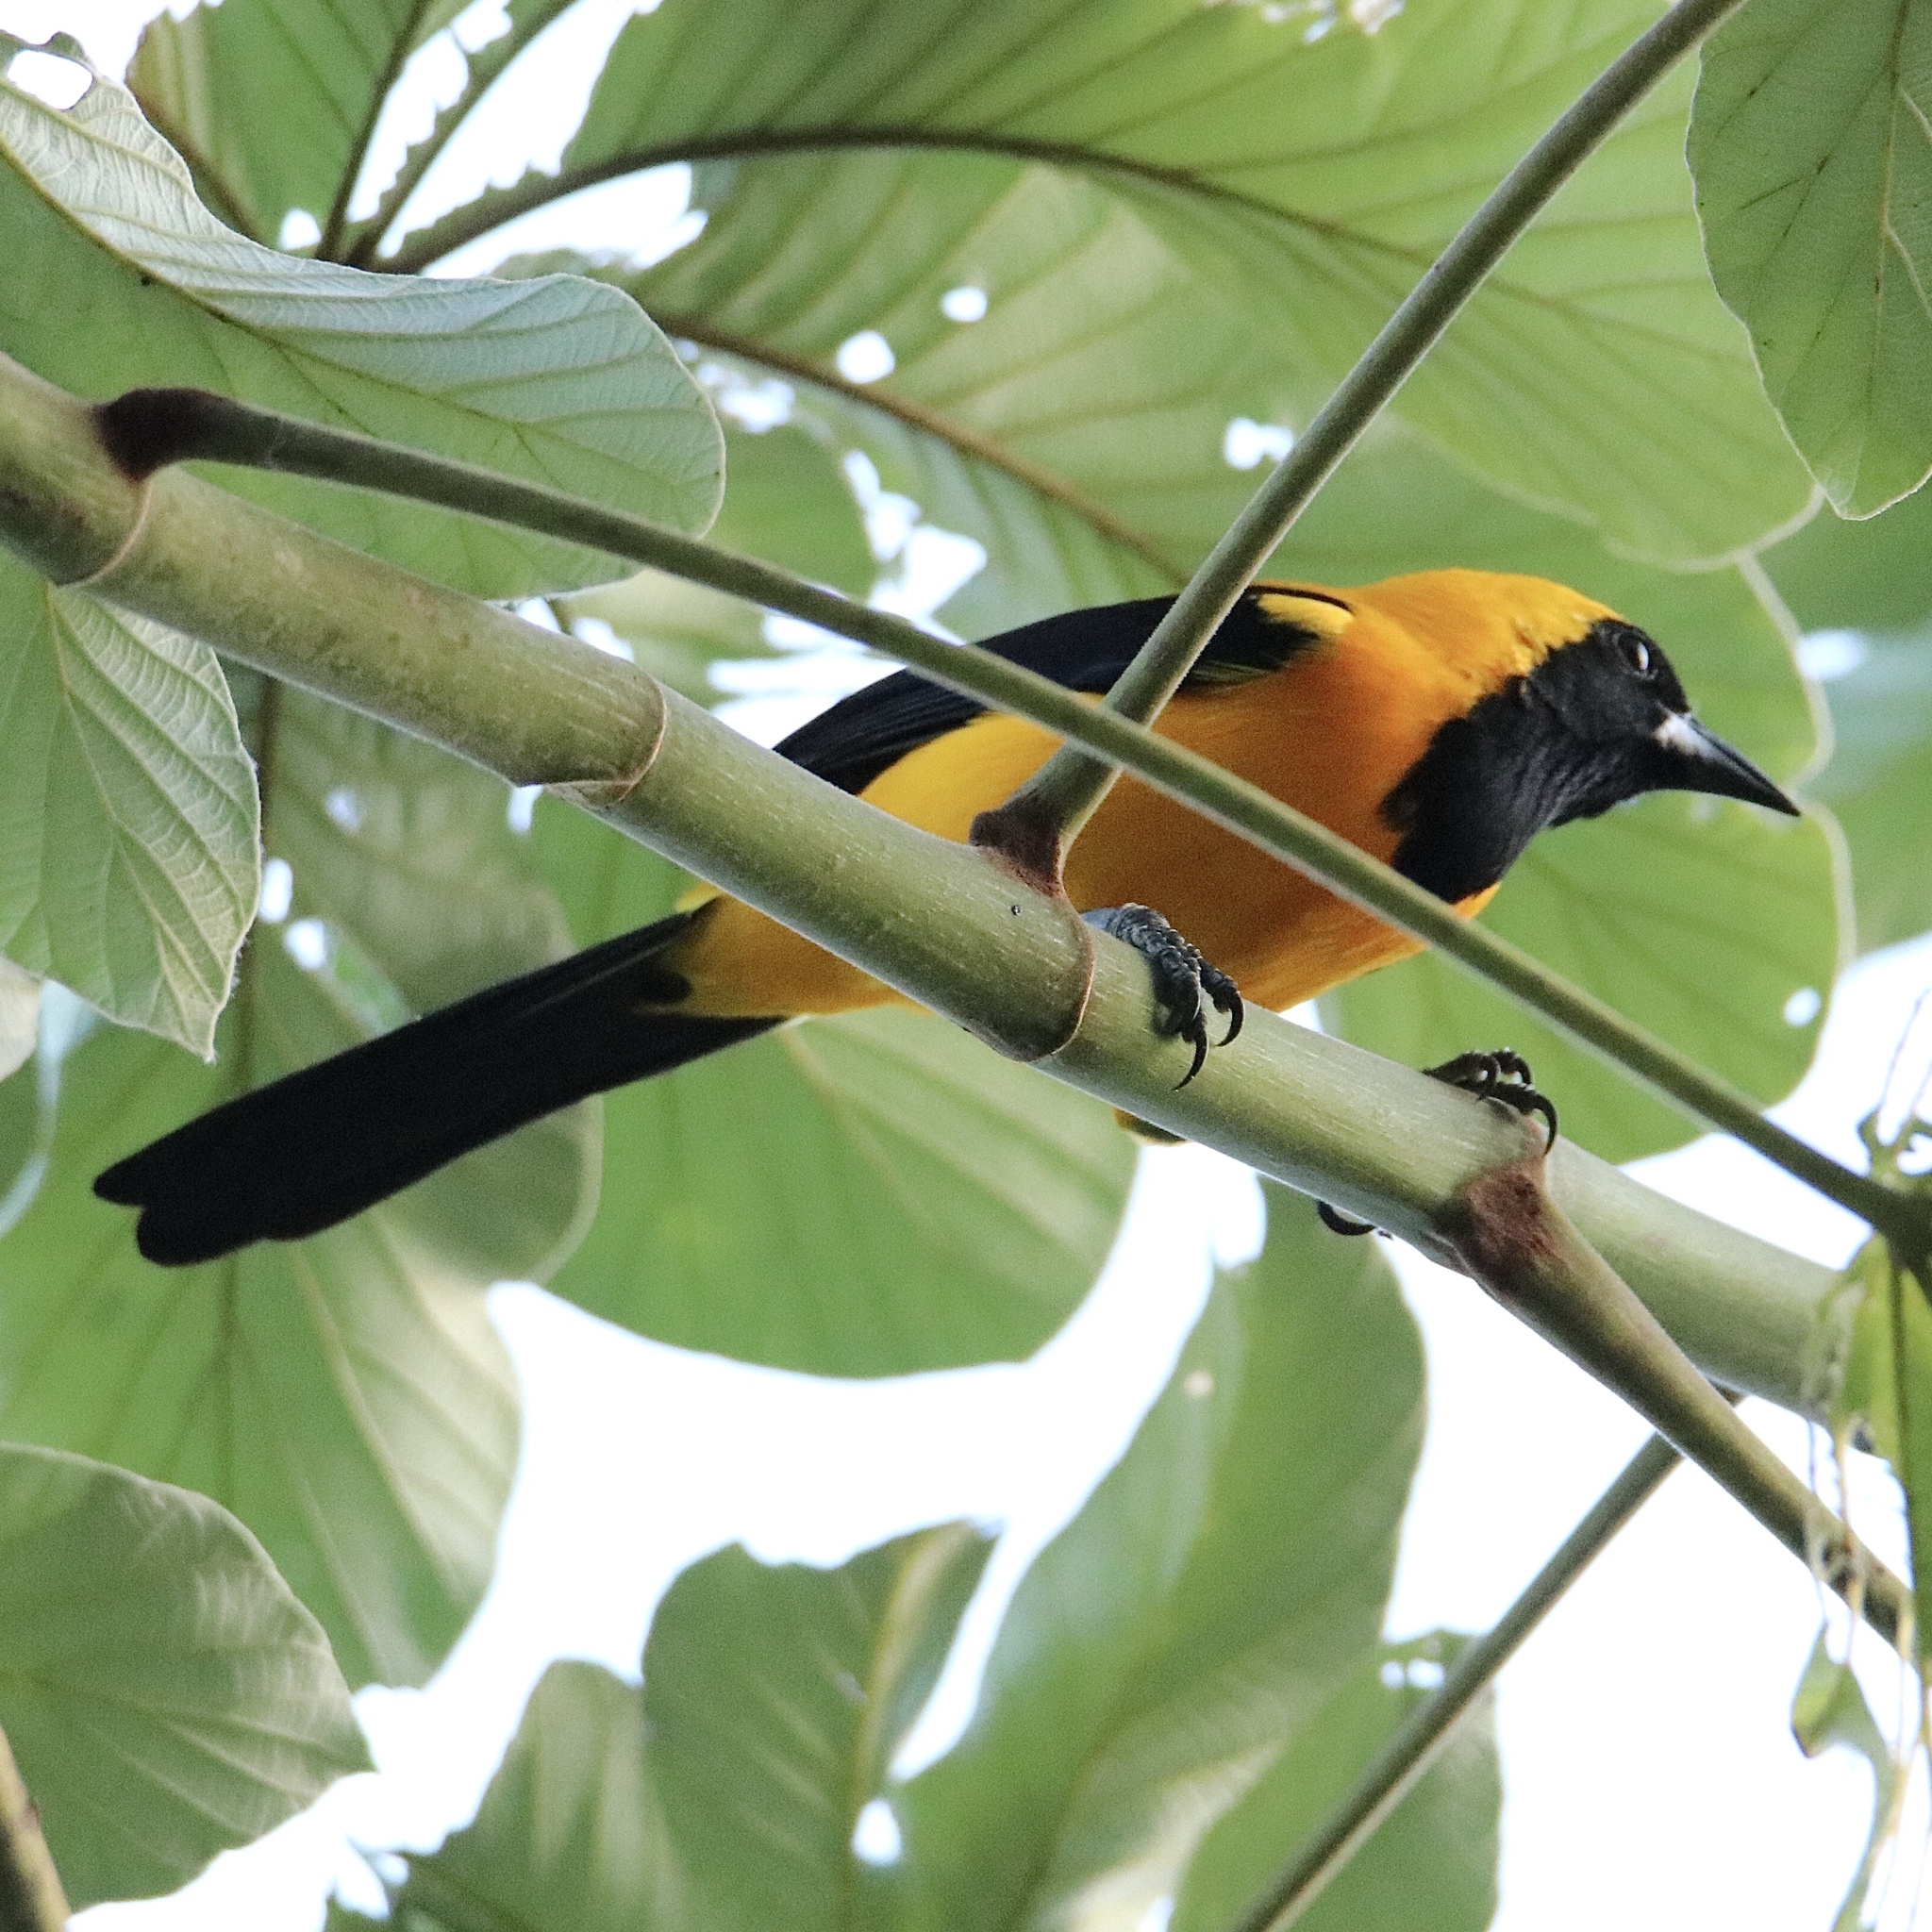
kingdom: Animalia
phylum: Chordata
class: Aves
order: Passeriformes
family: Icteridae
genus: Icterus
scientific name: Icterus chrysater
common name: Yellow-backed oriole
